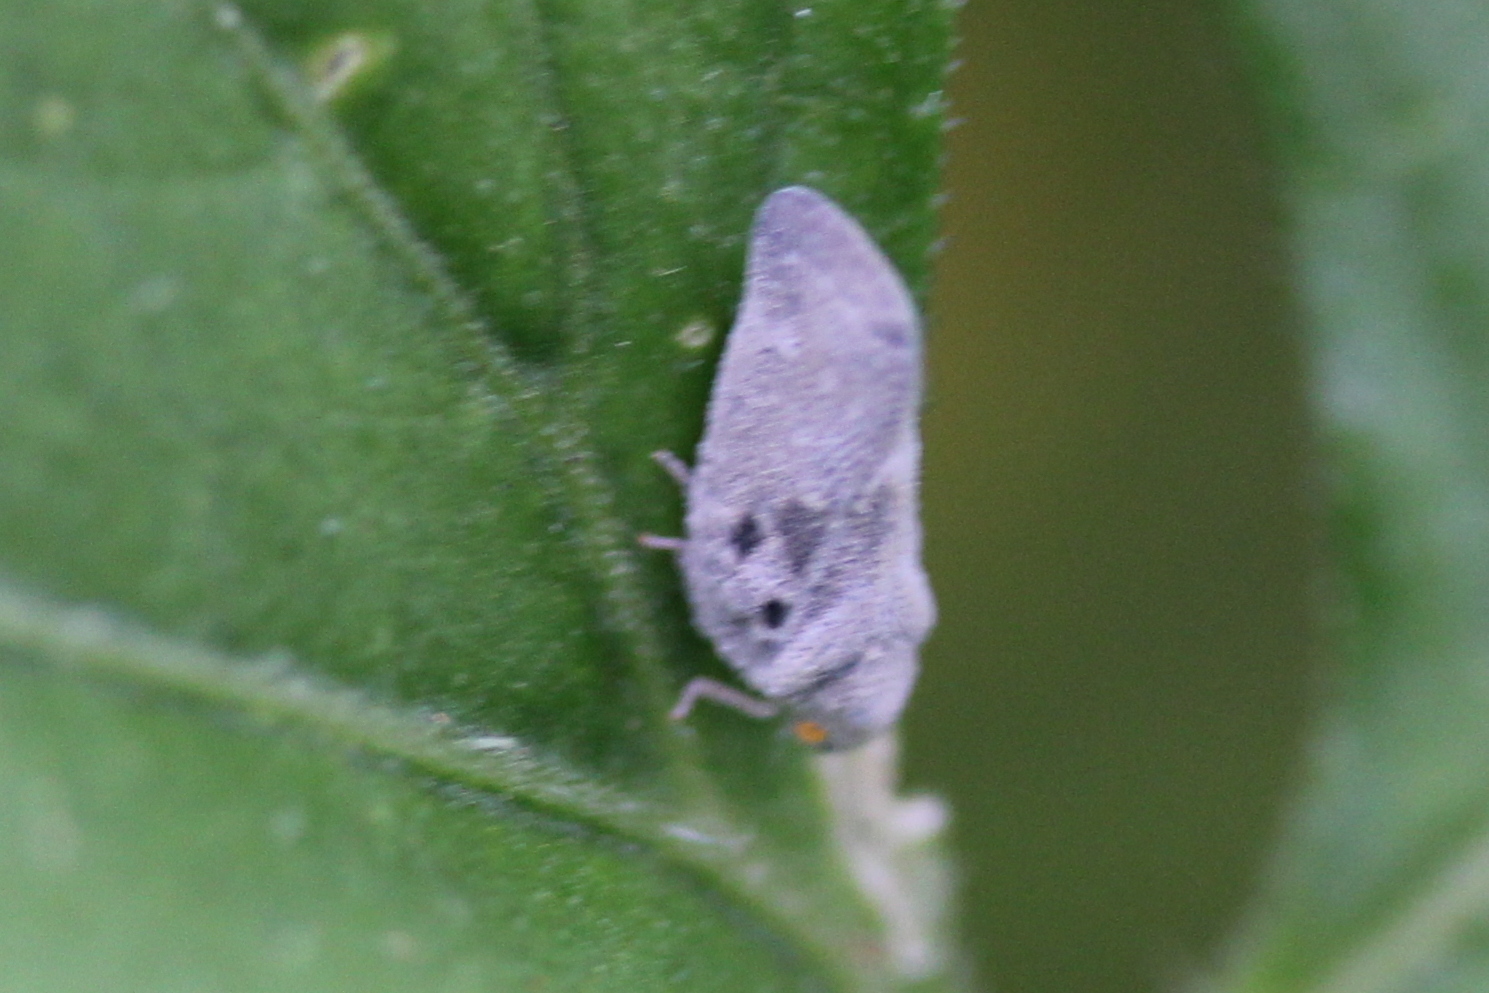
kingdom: Animalia
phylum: Arthropoda
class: Insecta
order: Hemiptera
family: Flatidae
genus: Metcalfa
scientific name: Metcalfa pruinosa
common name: Citrus flatid planthopper
